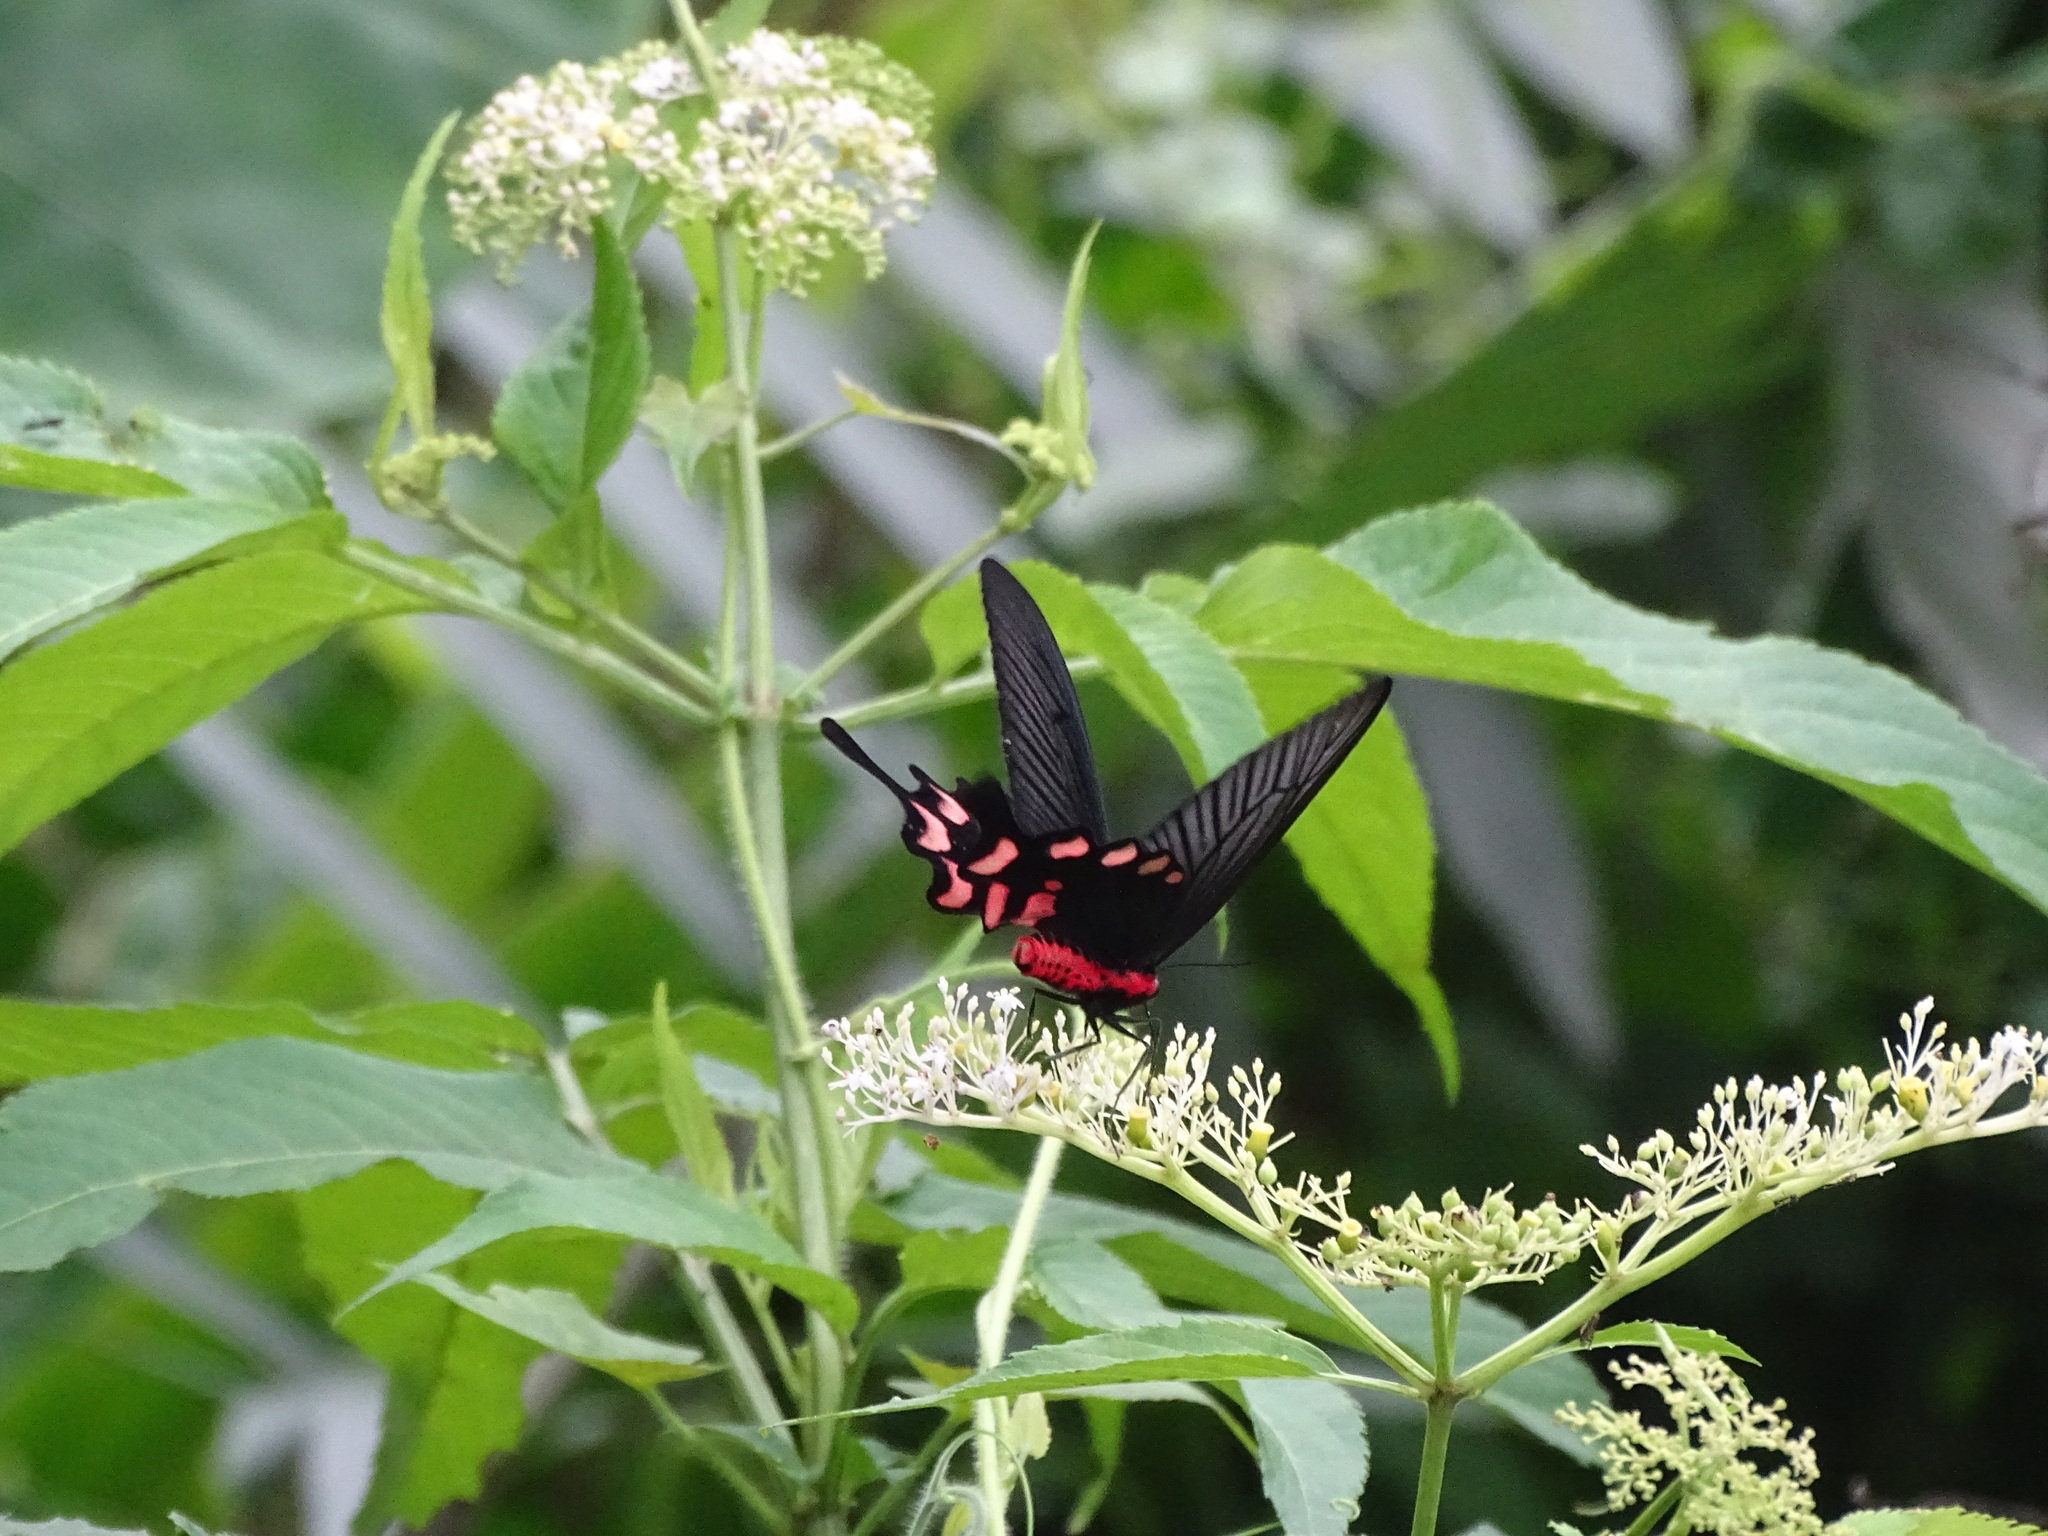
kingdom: Animalia
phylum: Arthropoda
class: Insecta
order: Lepidoptera
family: Papilionidae
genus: Byasa
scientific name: Byasa impediens
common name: Pink-spotted windmill
